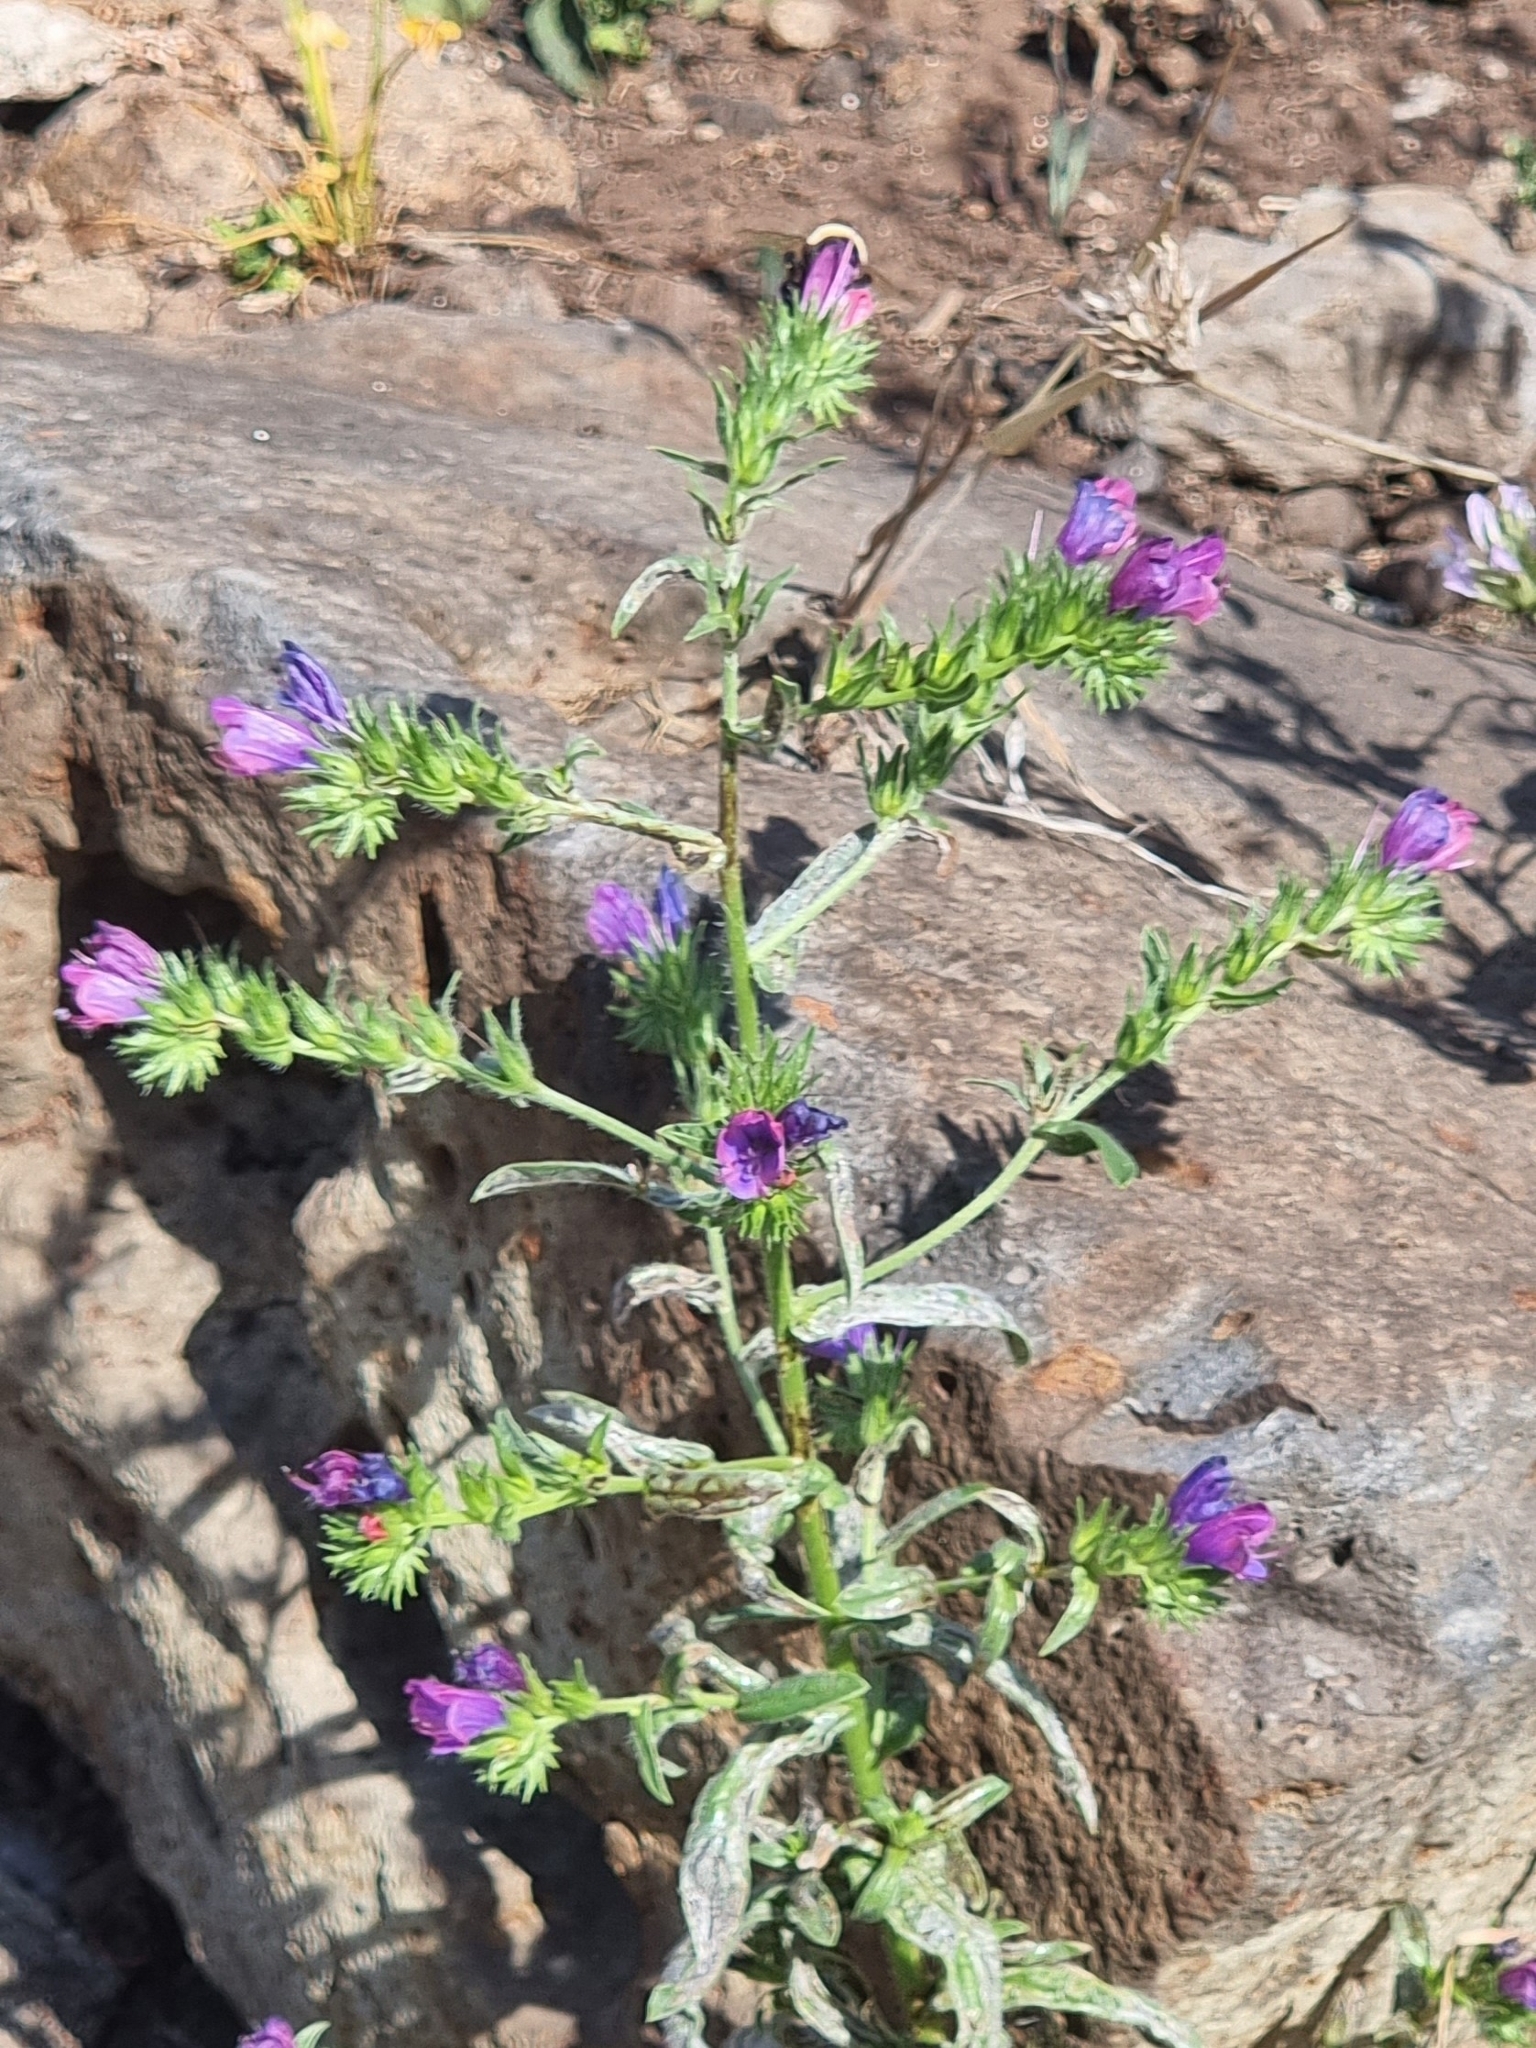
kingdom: Plantae
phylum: Tracheophyta
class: Magnoliopsida
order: Boraginales
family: Boraginaceae
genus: Echium
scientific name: Echium plantagineum
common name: Purple viper's-bugloss
